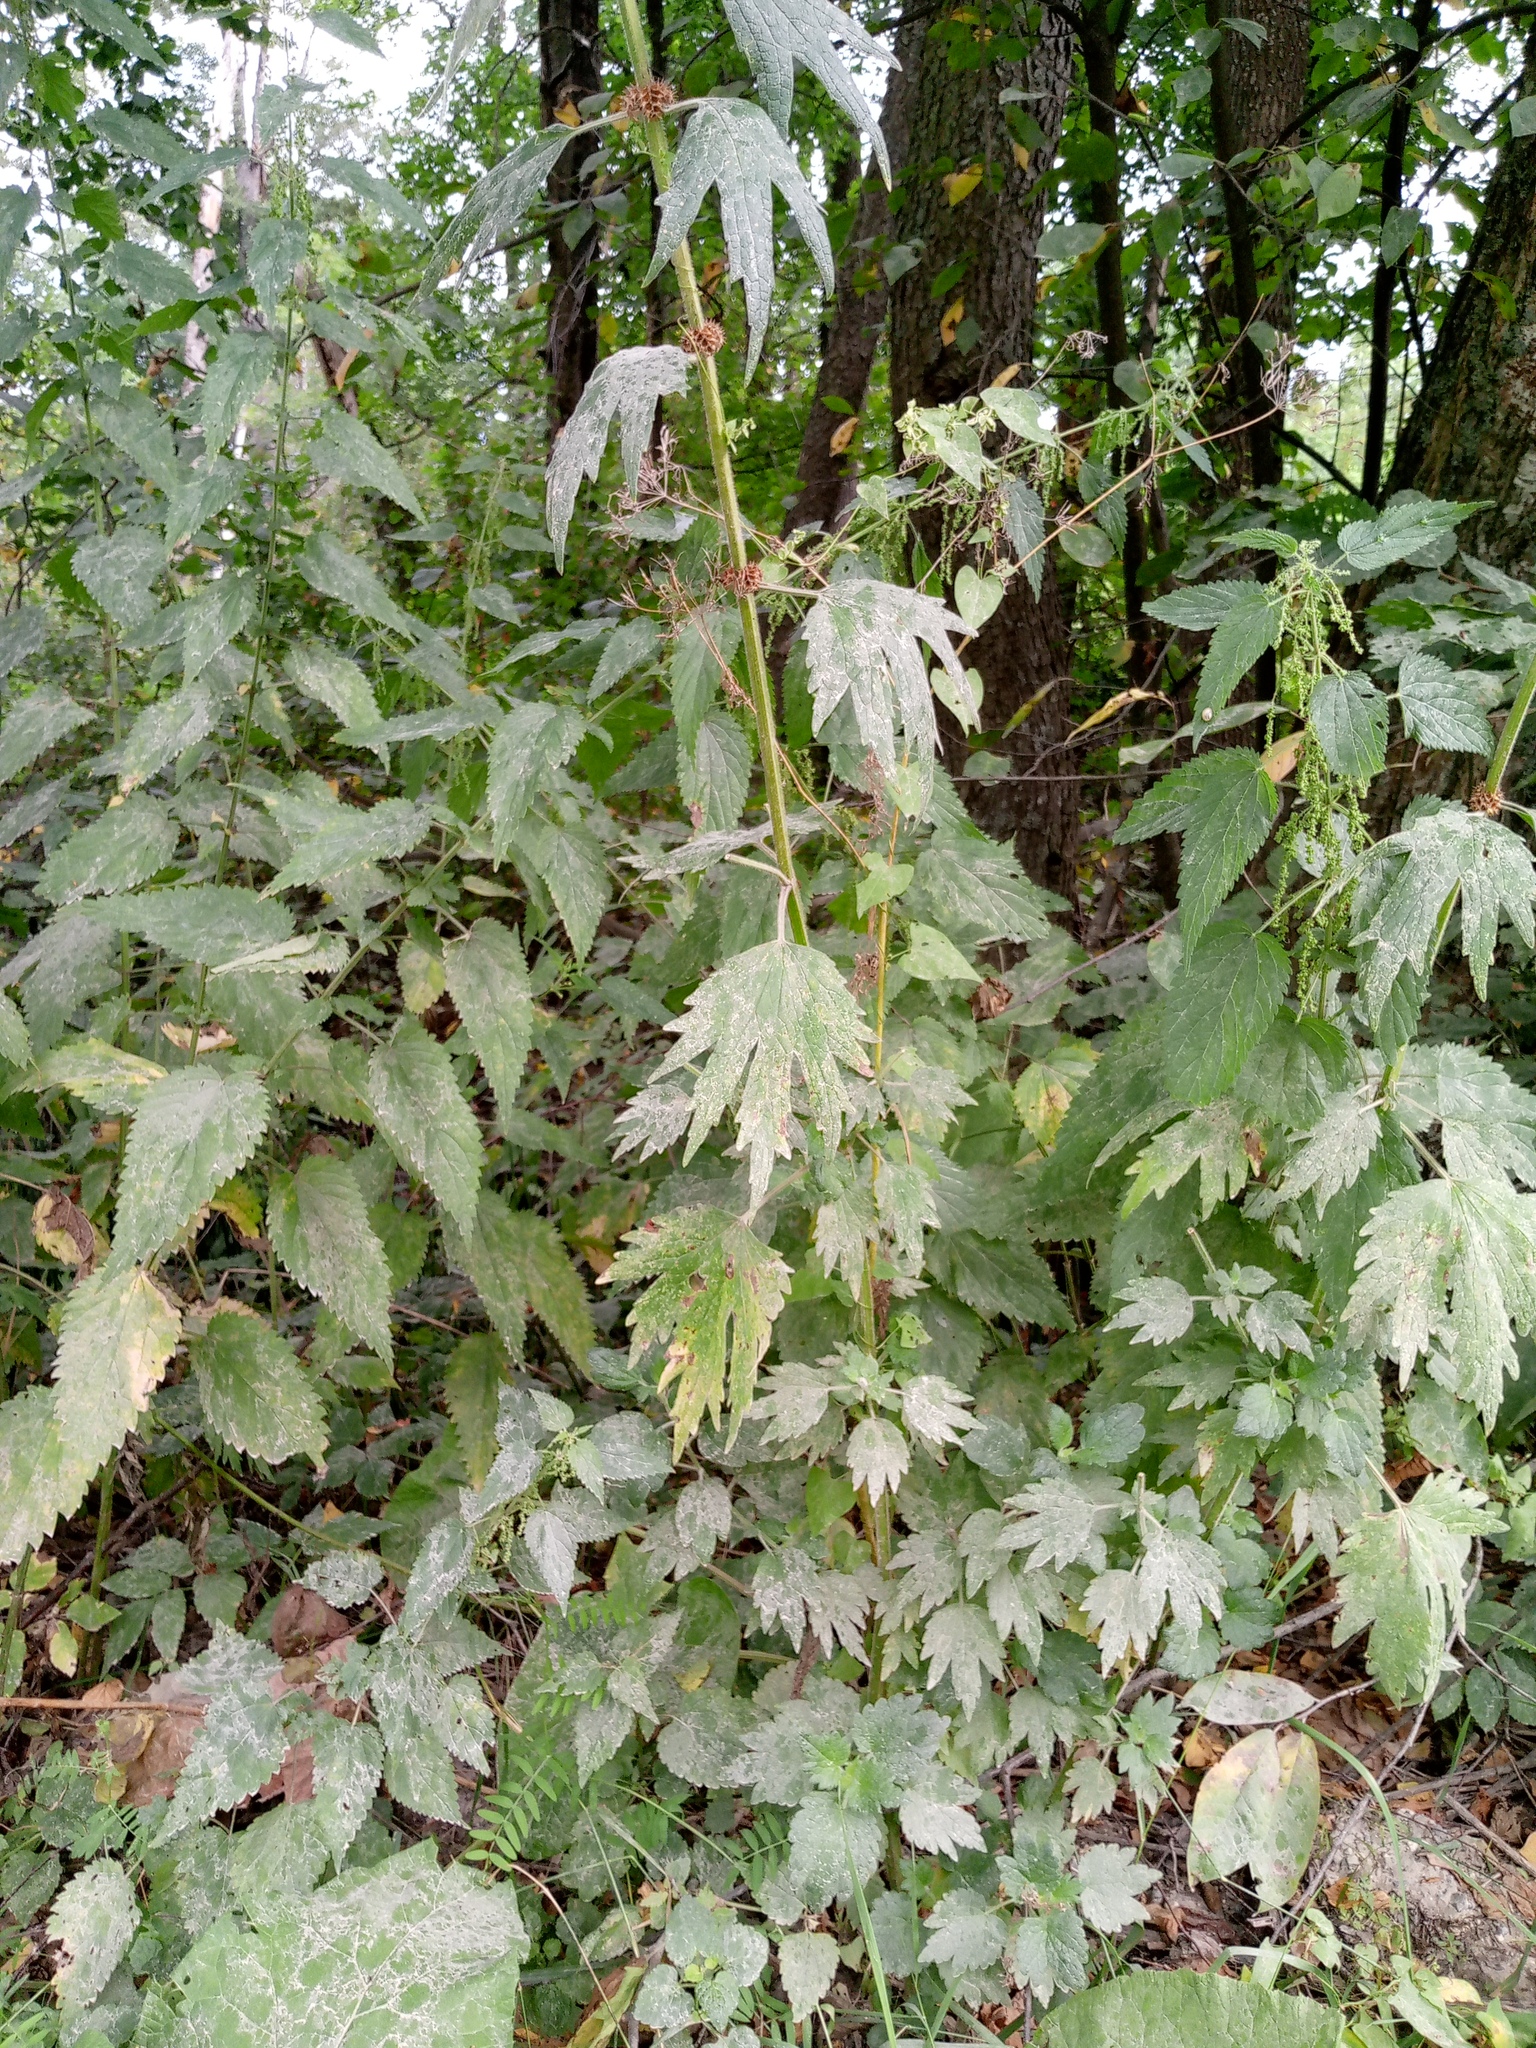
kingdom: Plantae
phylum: Tracheophyta
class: Magnoliopsida
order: Lamiales
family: Lamiaceae
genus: Leonurus
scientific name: Leonurus quinquelobatus
